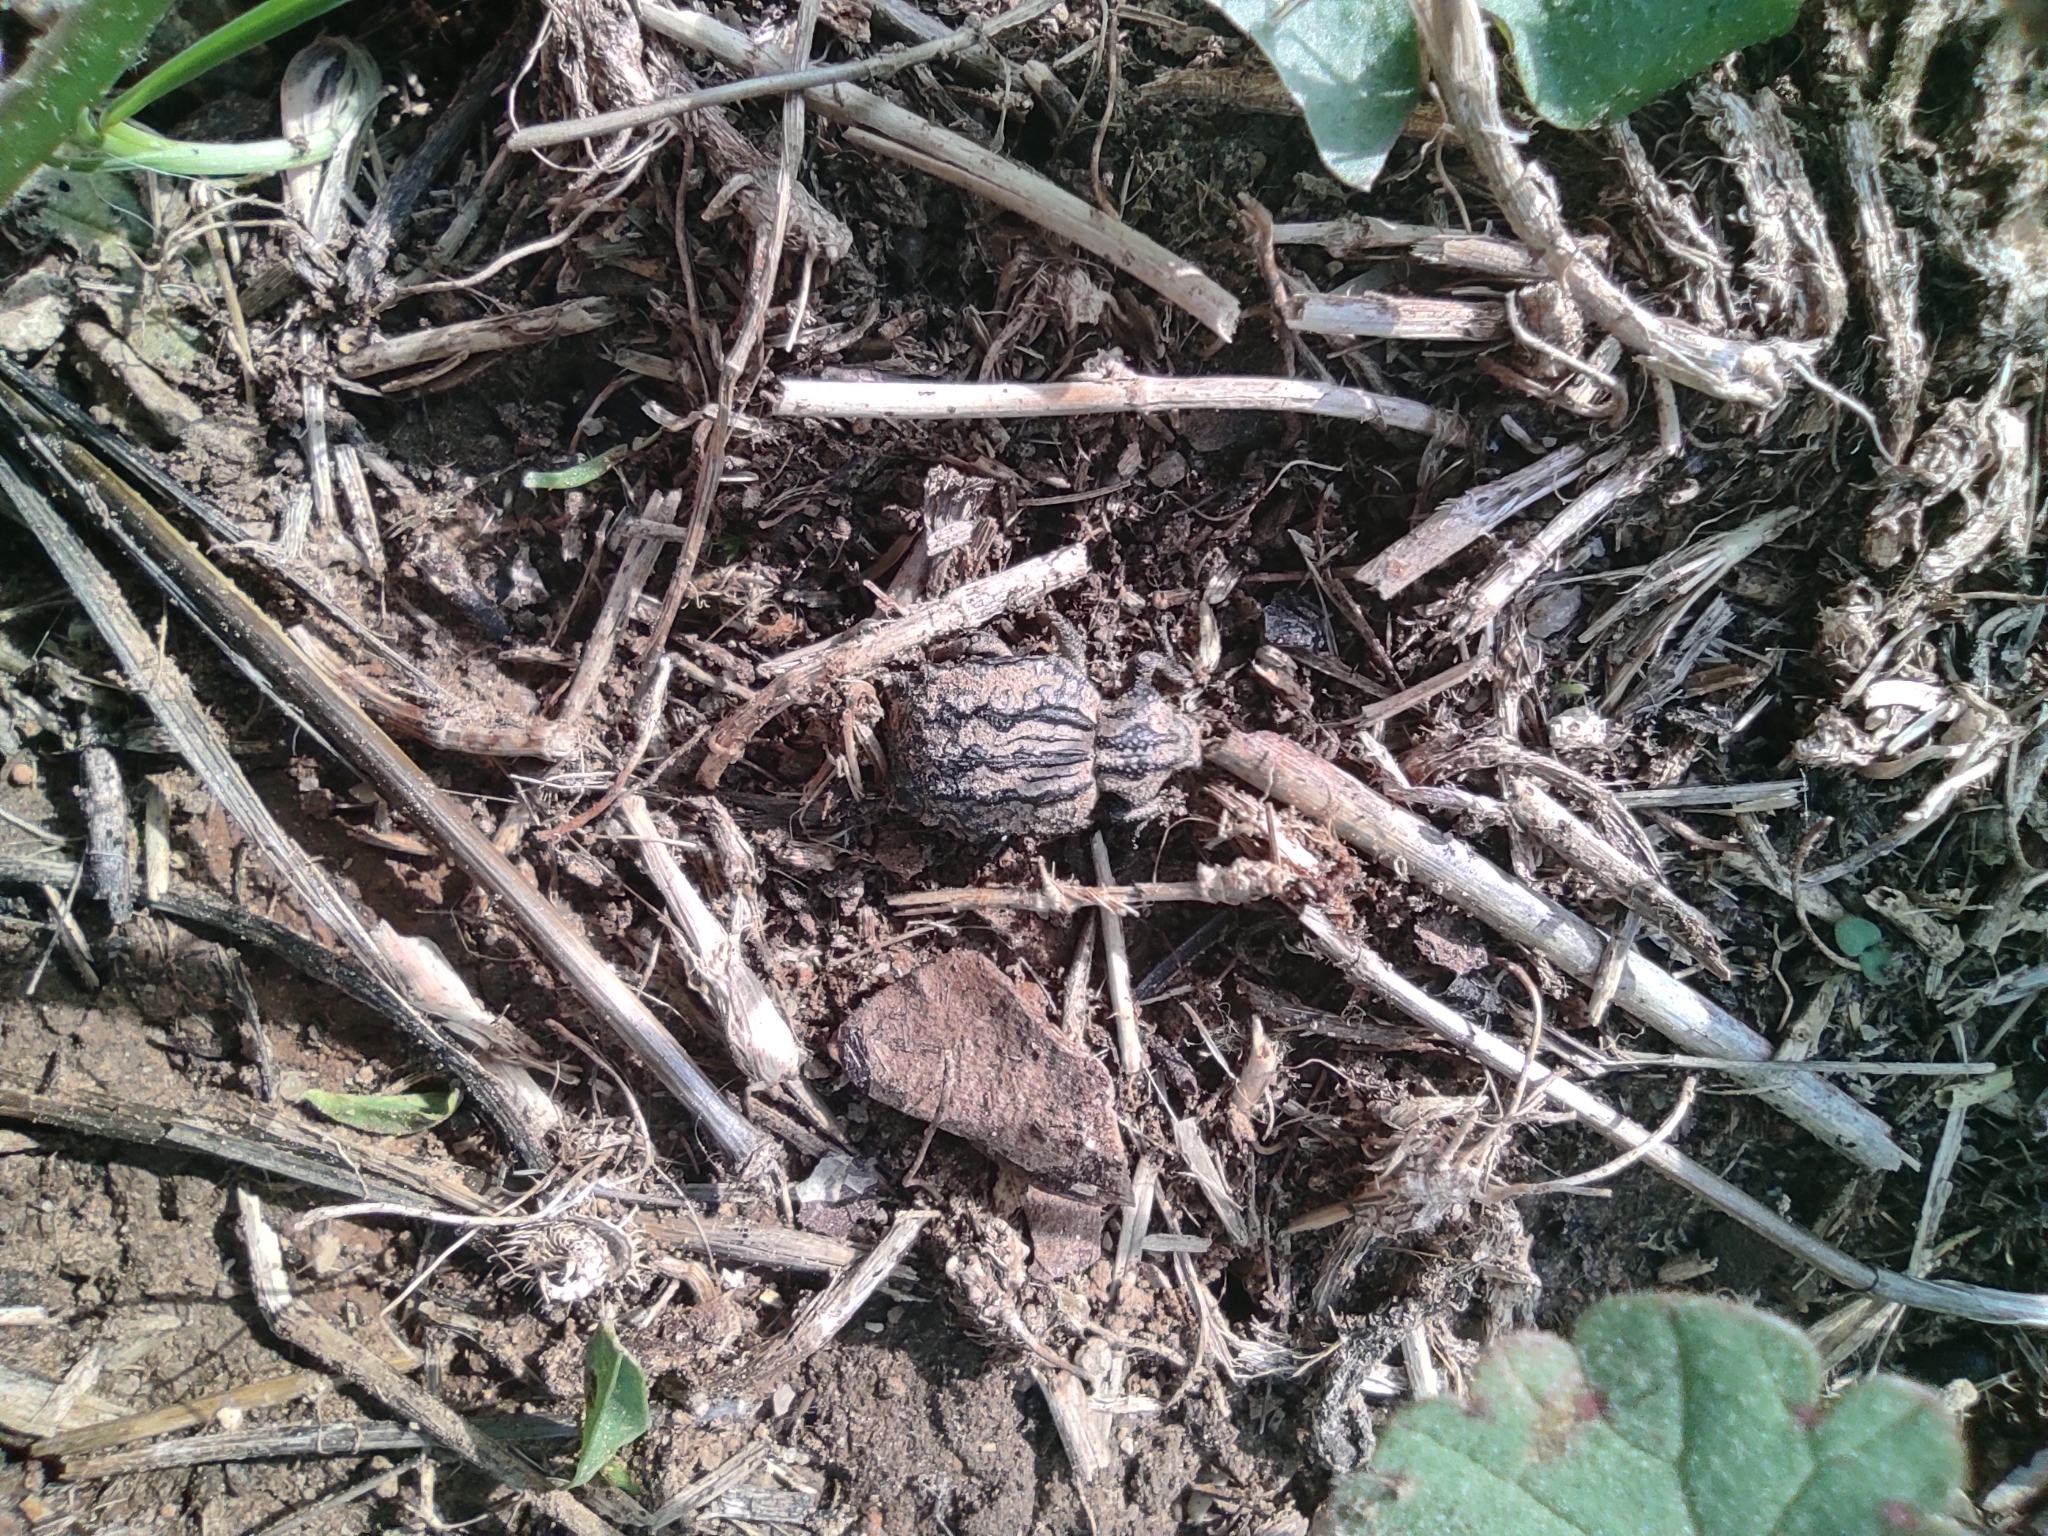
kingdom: Animalia
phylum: Arthropoda
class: Insecta
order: Coleoptera
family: Brachyceridae
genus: Brachycerus
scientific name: Brachycerus undatus
